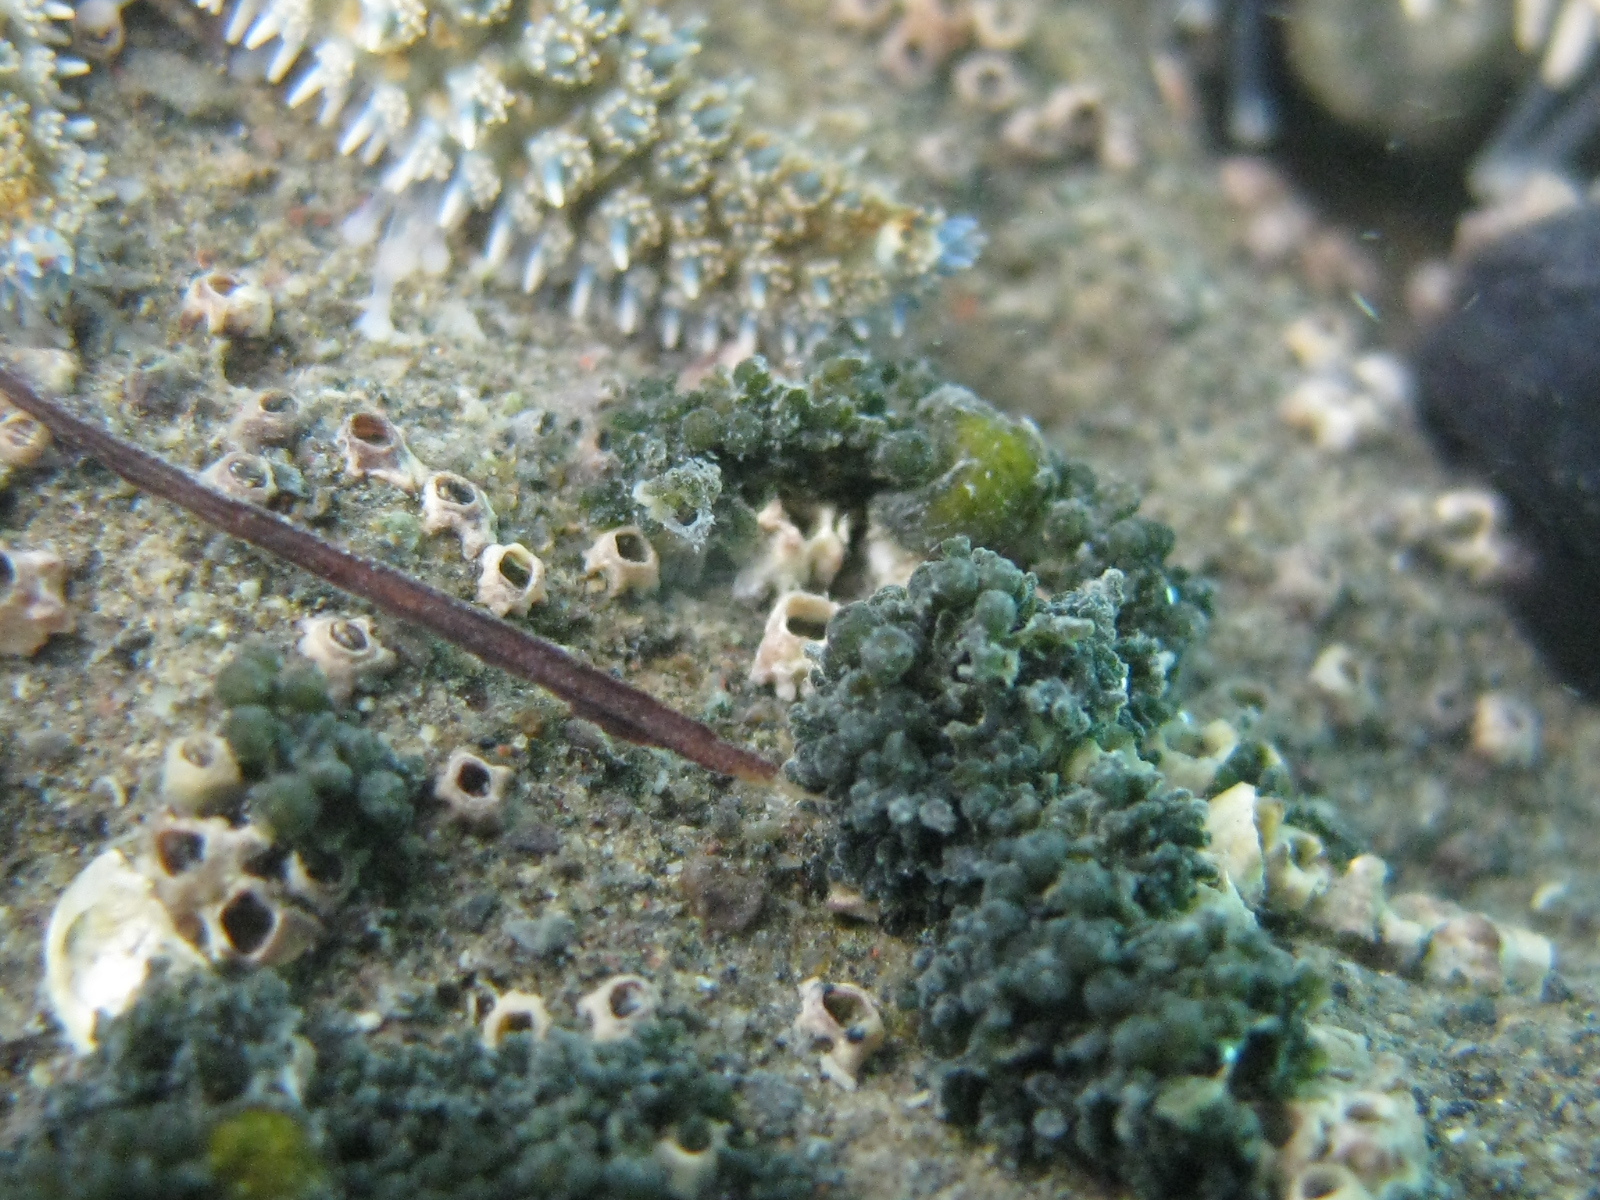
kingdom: Animalia
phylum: Arthropoda
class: Maxillopoda
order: Sessilia
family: Chthamalidae
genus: Chamaesipho
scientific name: Chamaesipho columna
